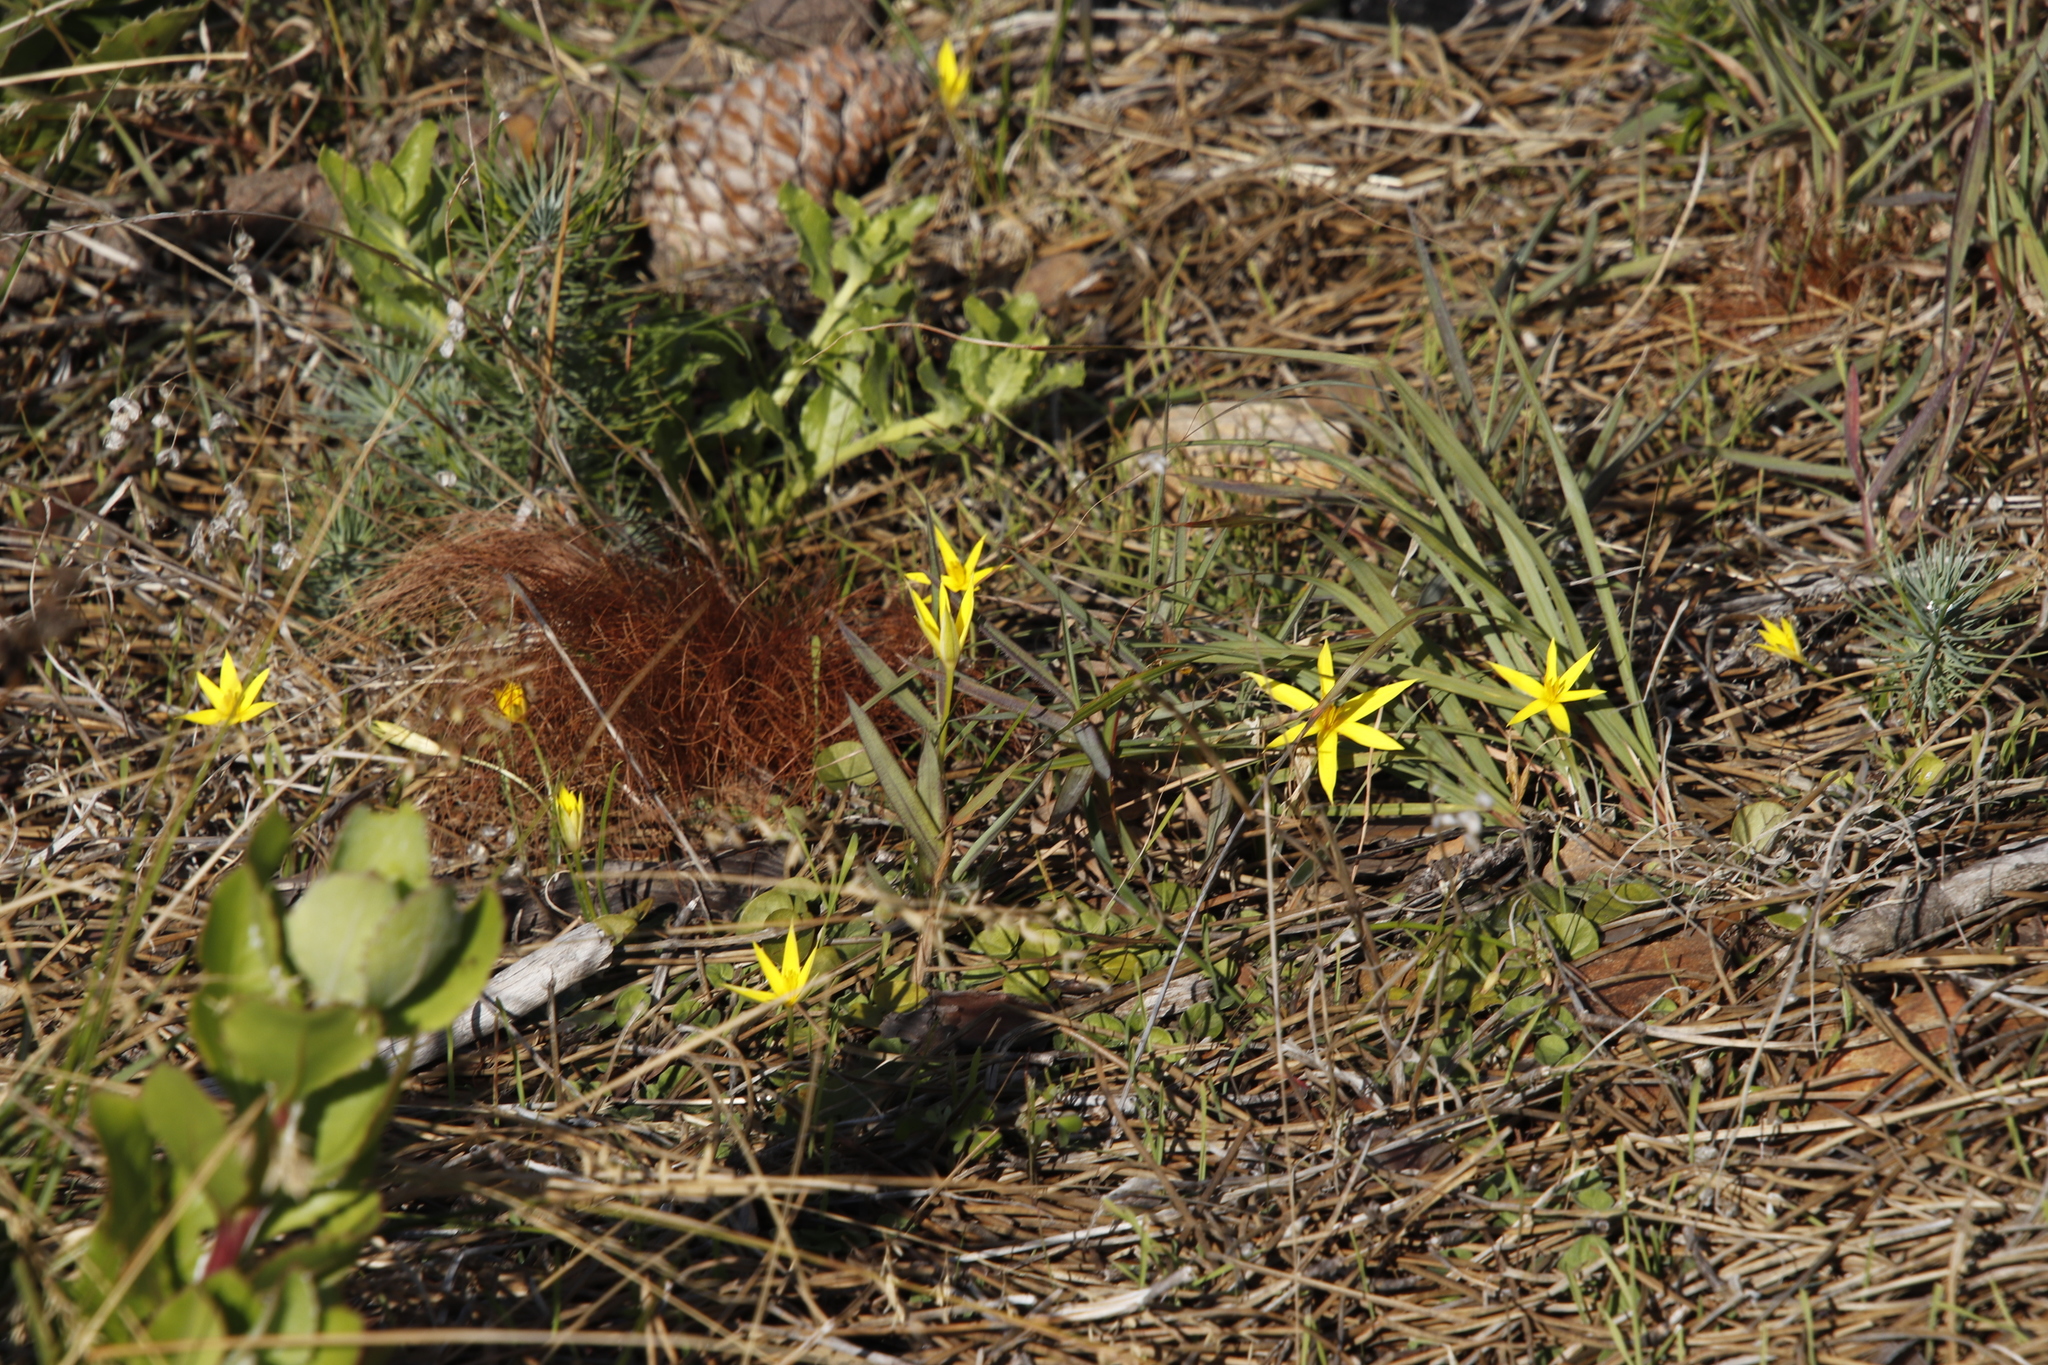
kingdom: Plantae
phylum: Tracheophyta
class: Liliopsida
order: Asparagales
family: Hypoxidaceae
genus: Empodium
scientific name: Empodium plicatum
